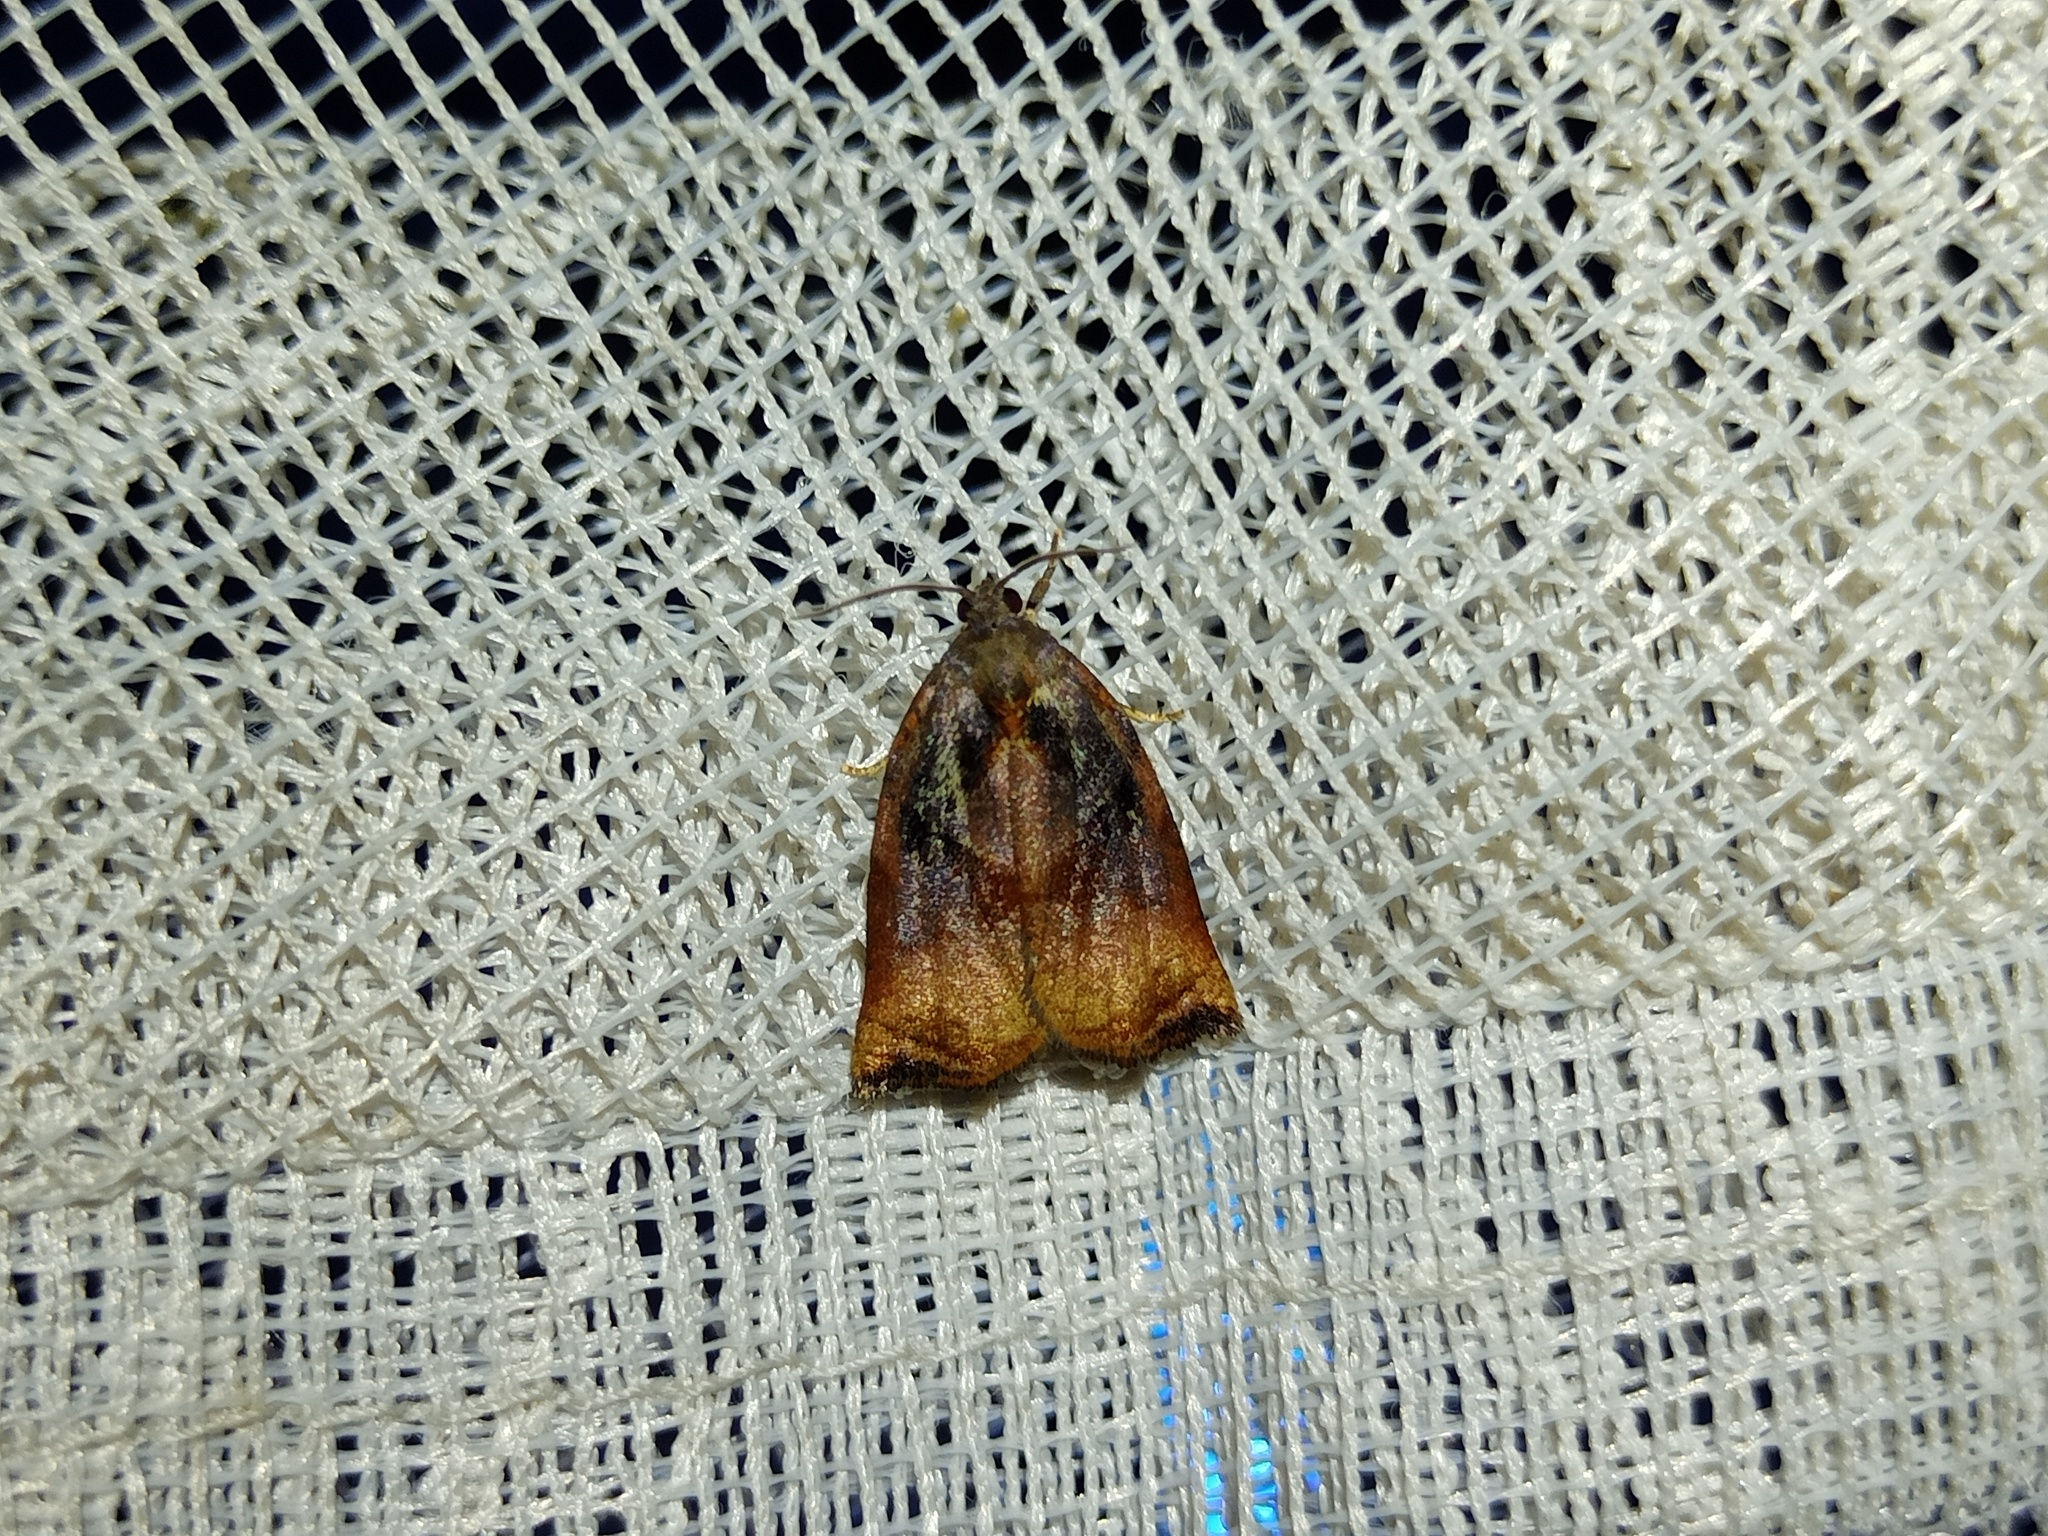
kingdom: Animalia
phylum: Arthropoda
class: Insecta
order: Lepidoptera
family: Tortricidae
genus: Archips
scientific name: Archips podana
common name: Large fruit-tree tortrix
